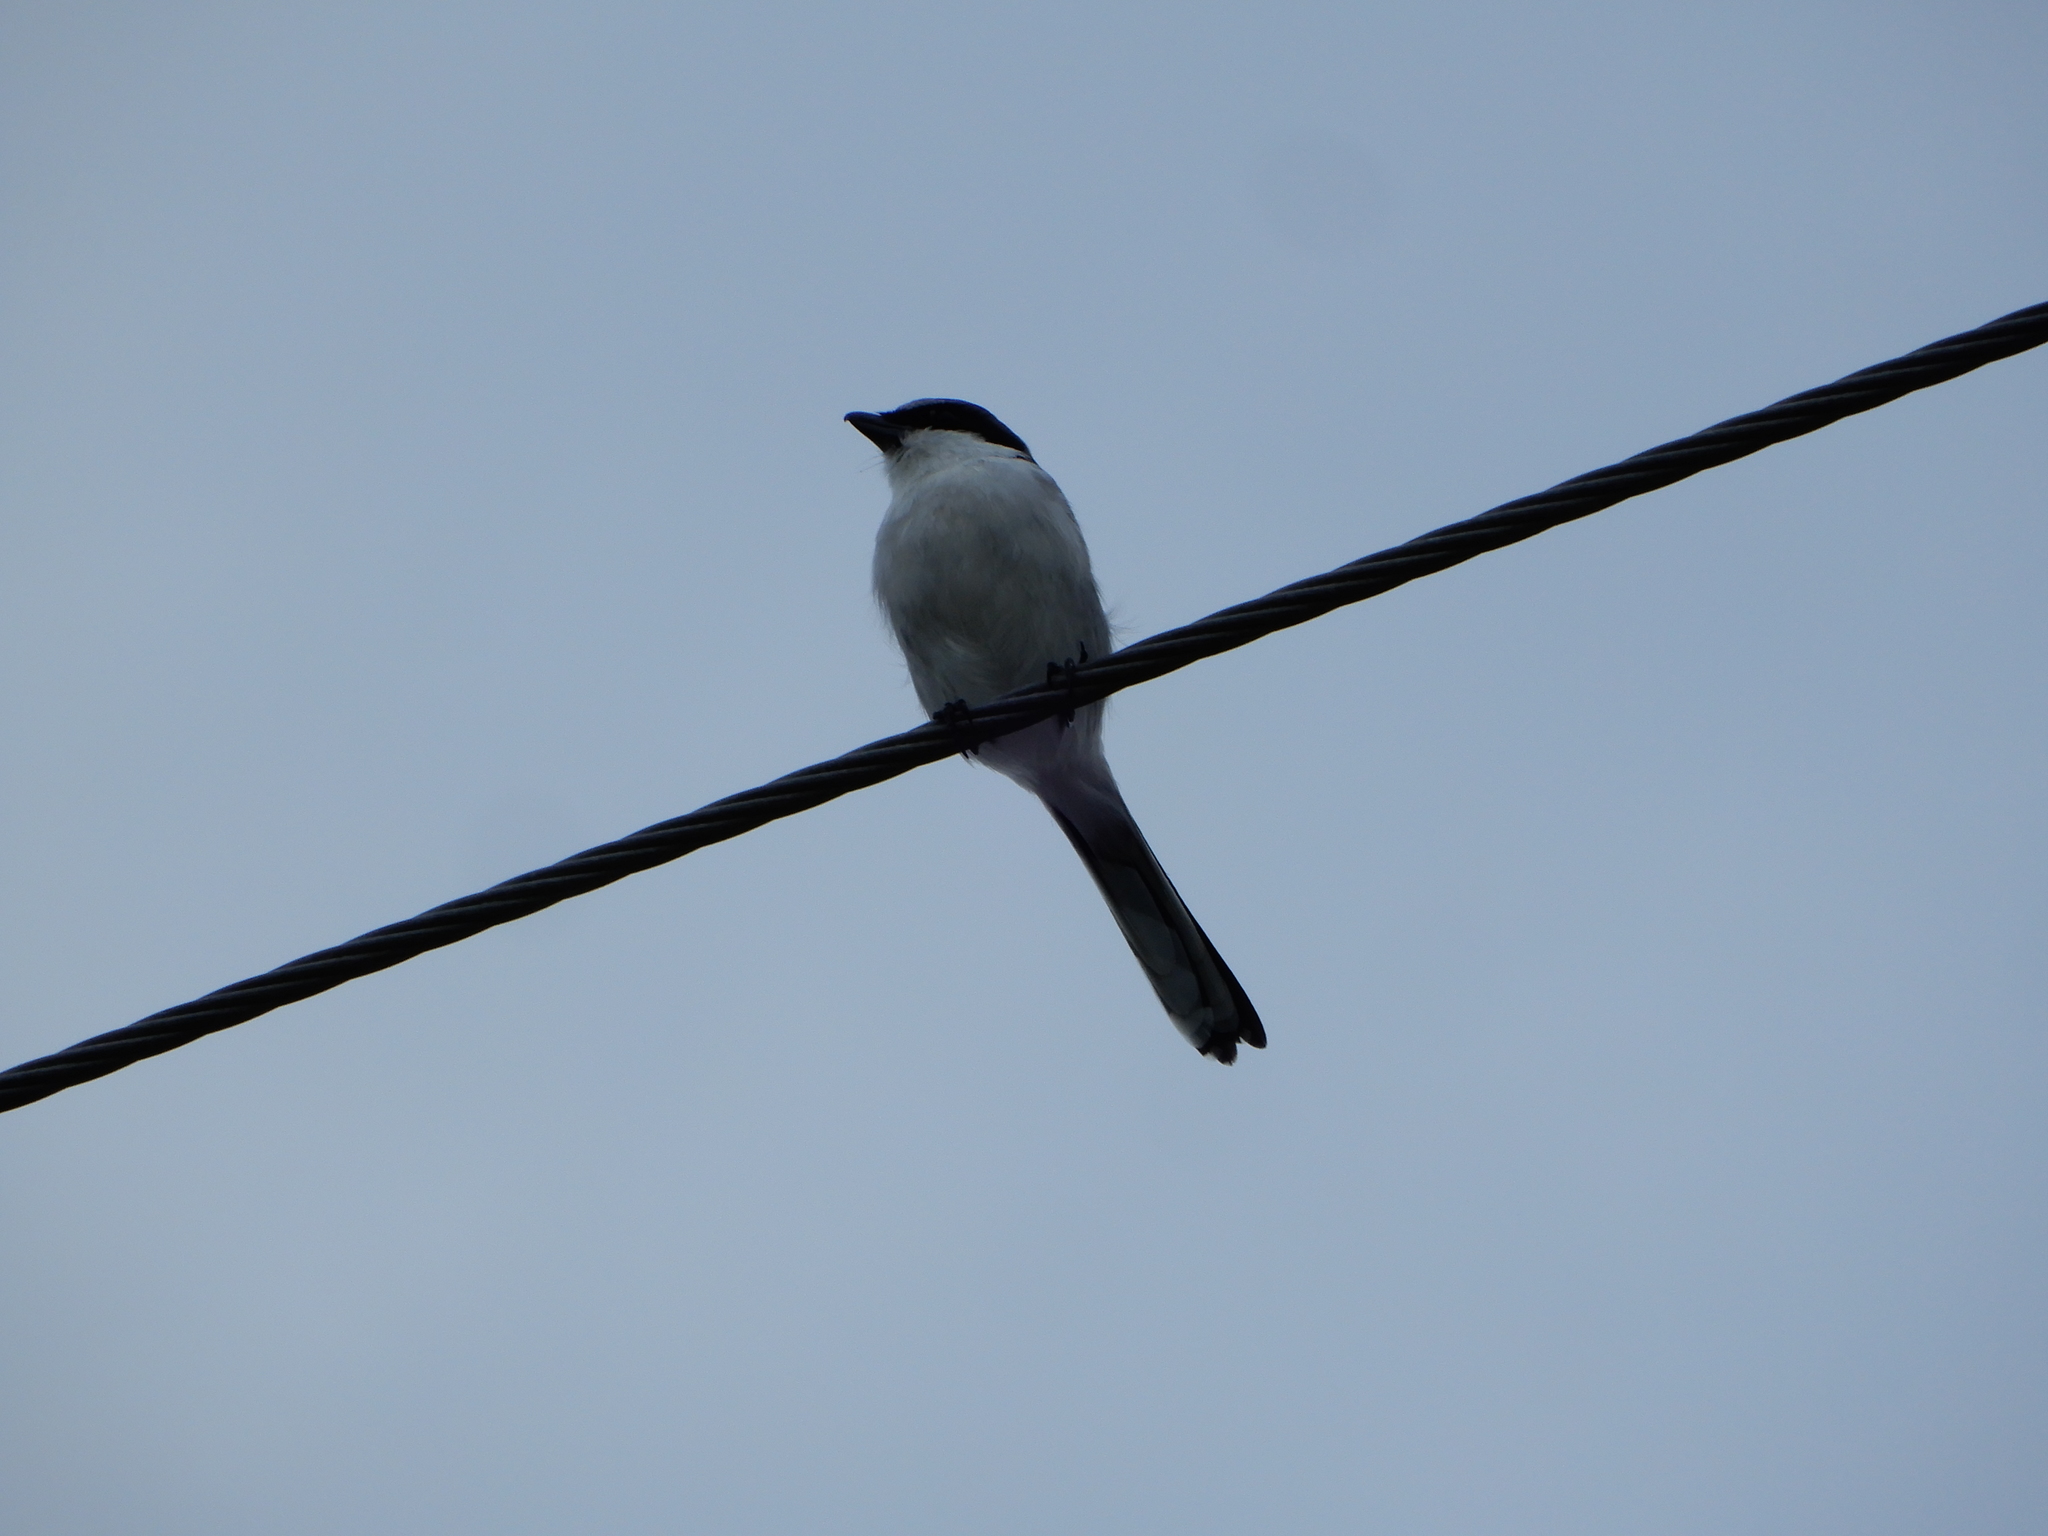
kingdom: Animalia
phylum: Chordata
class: Aves
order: Passeriformes
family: Laniidae
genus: Lanius
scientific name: Lanius ludovicianus
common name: Loggerhead shrike
